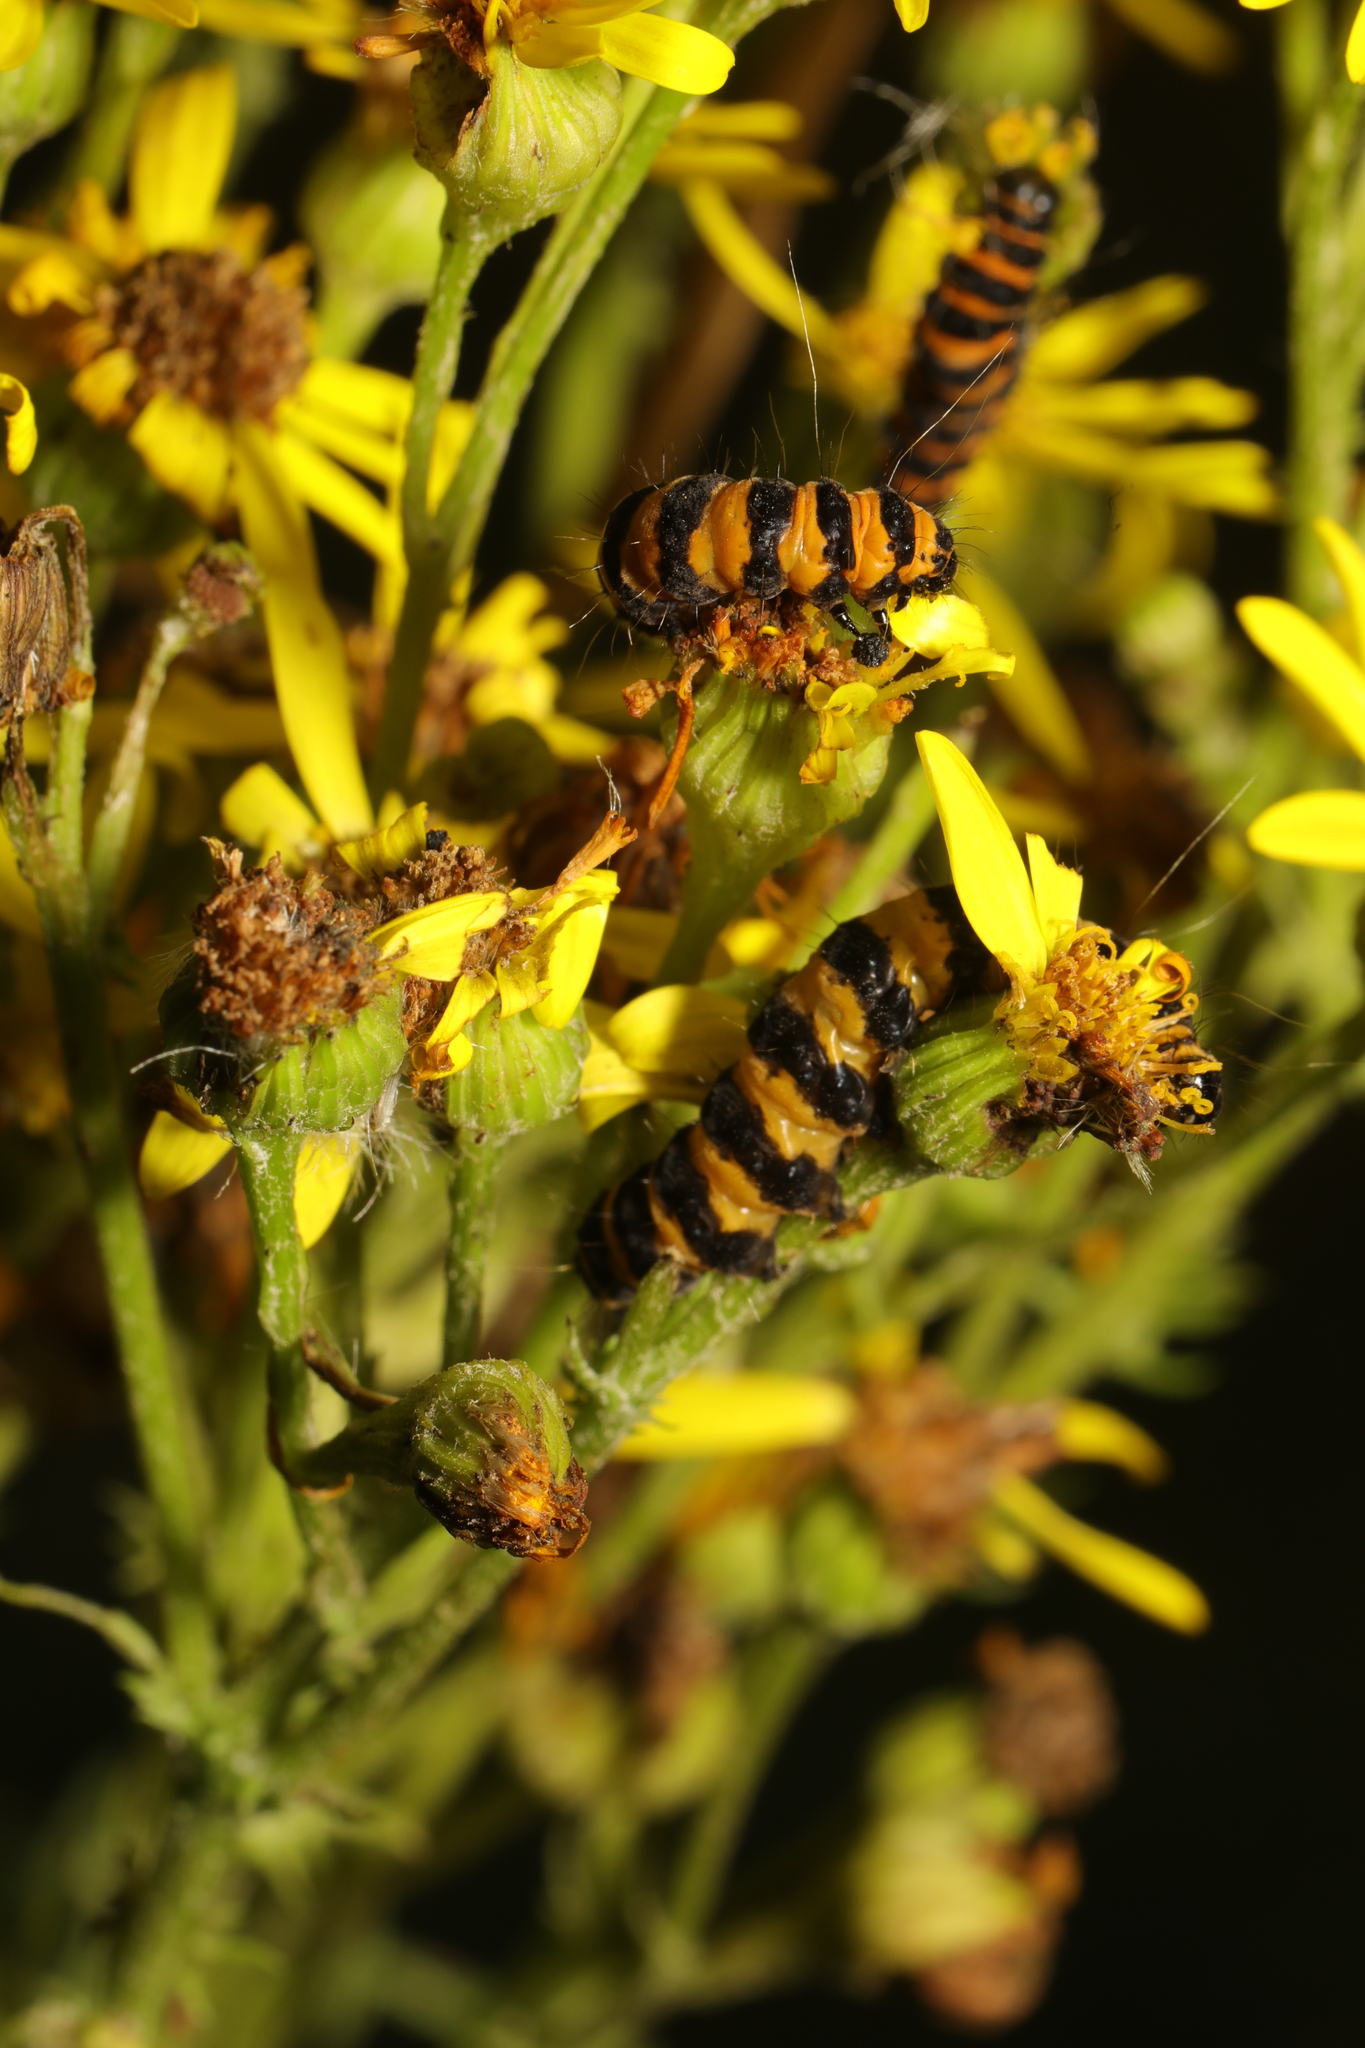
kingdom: Animalia
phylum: Arthropoda
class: Insecta
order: Lepidoptera
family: Erebidae
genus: Tyria
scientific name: Tyria jacobaeae
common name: Cinnabar
